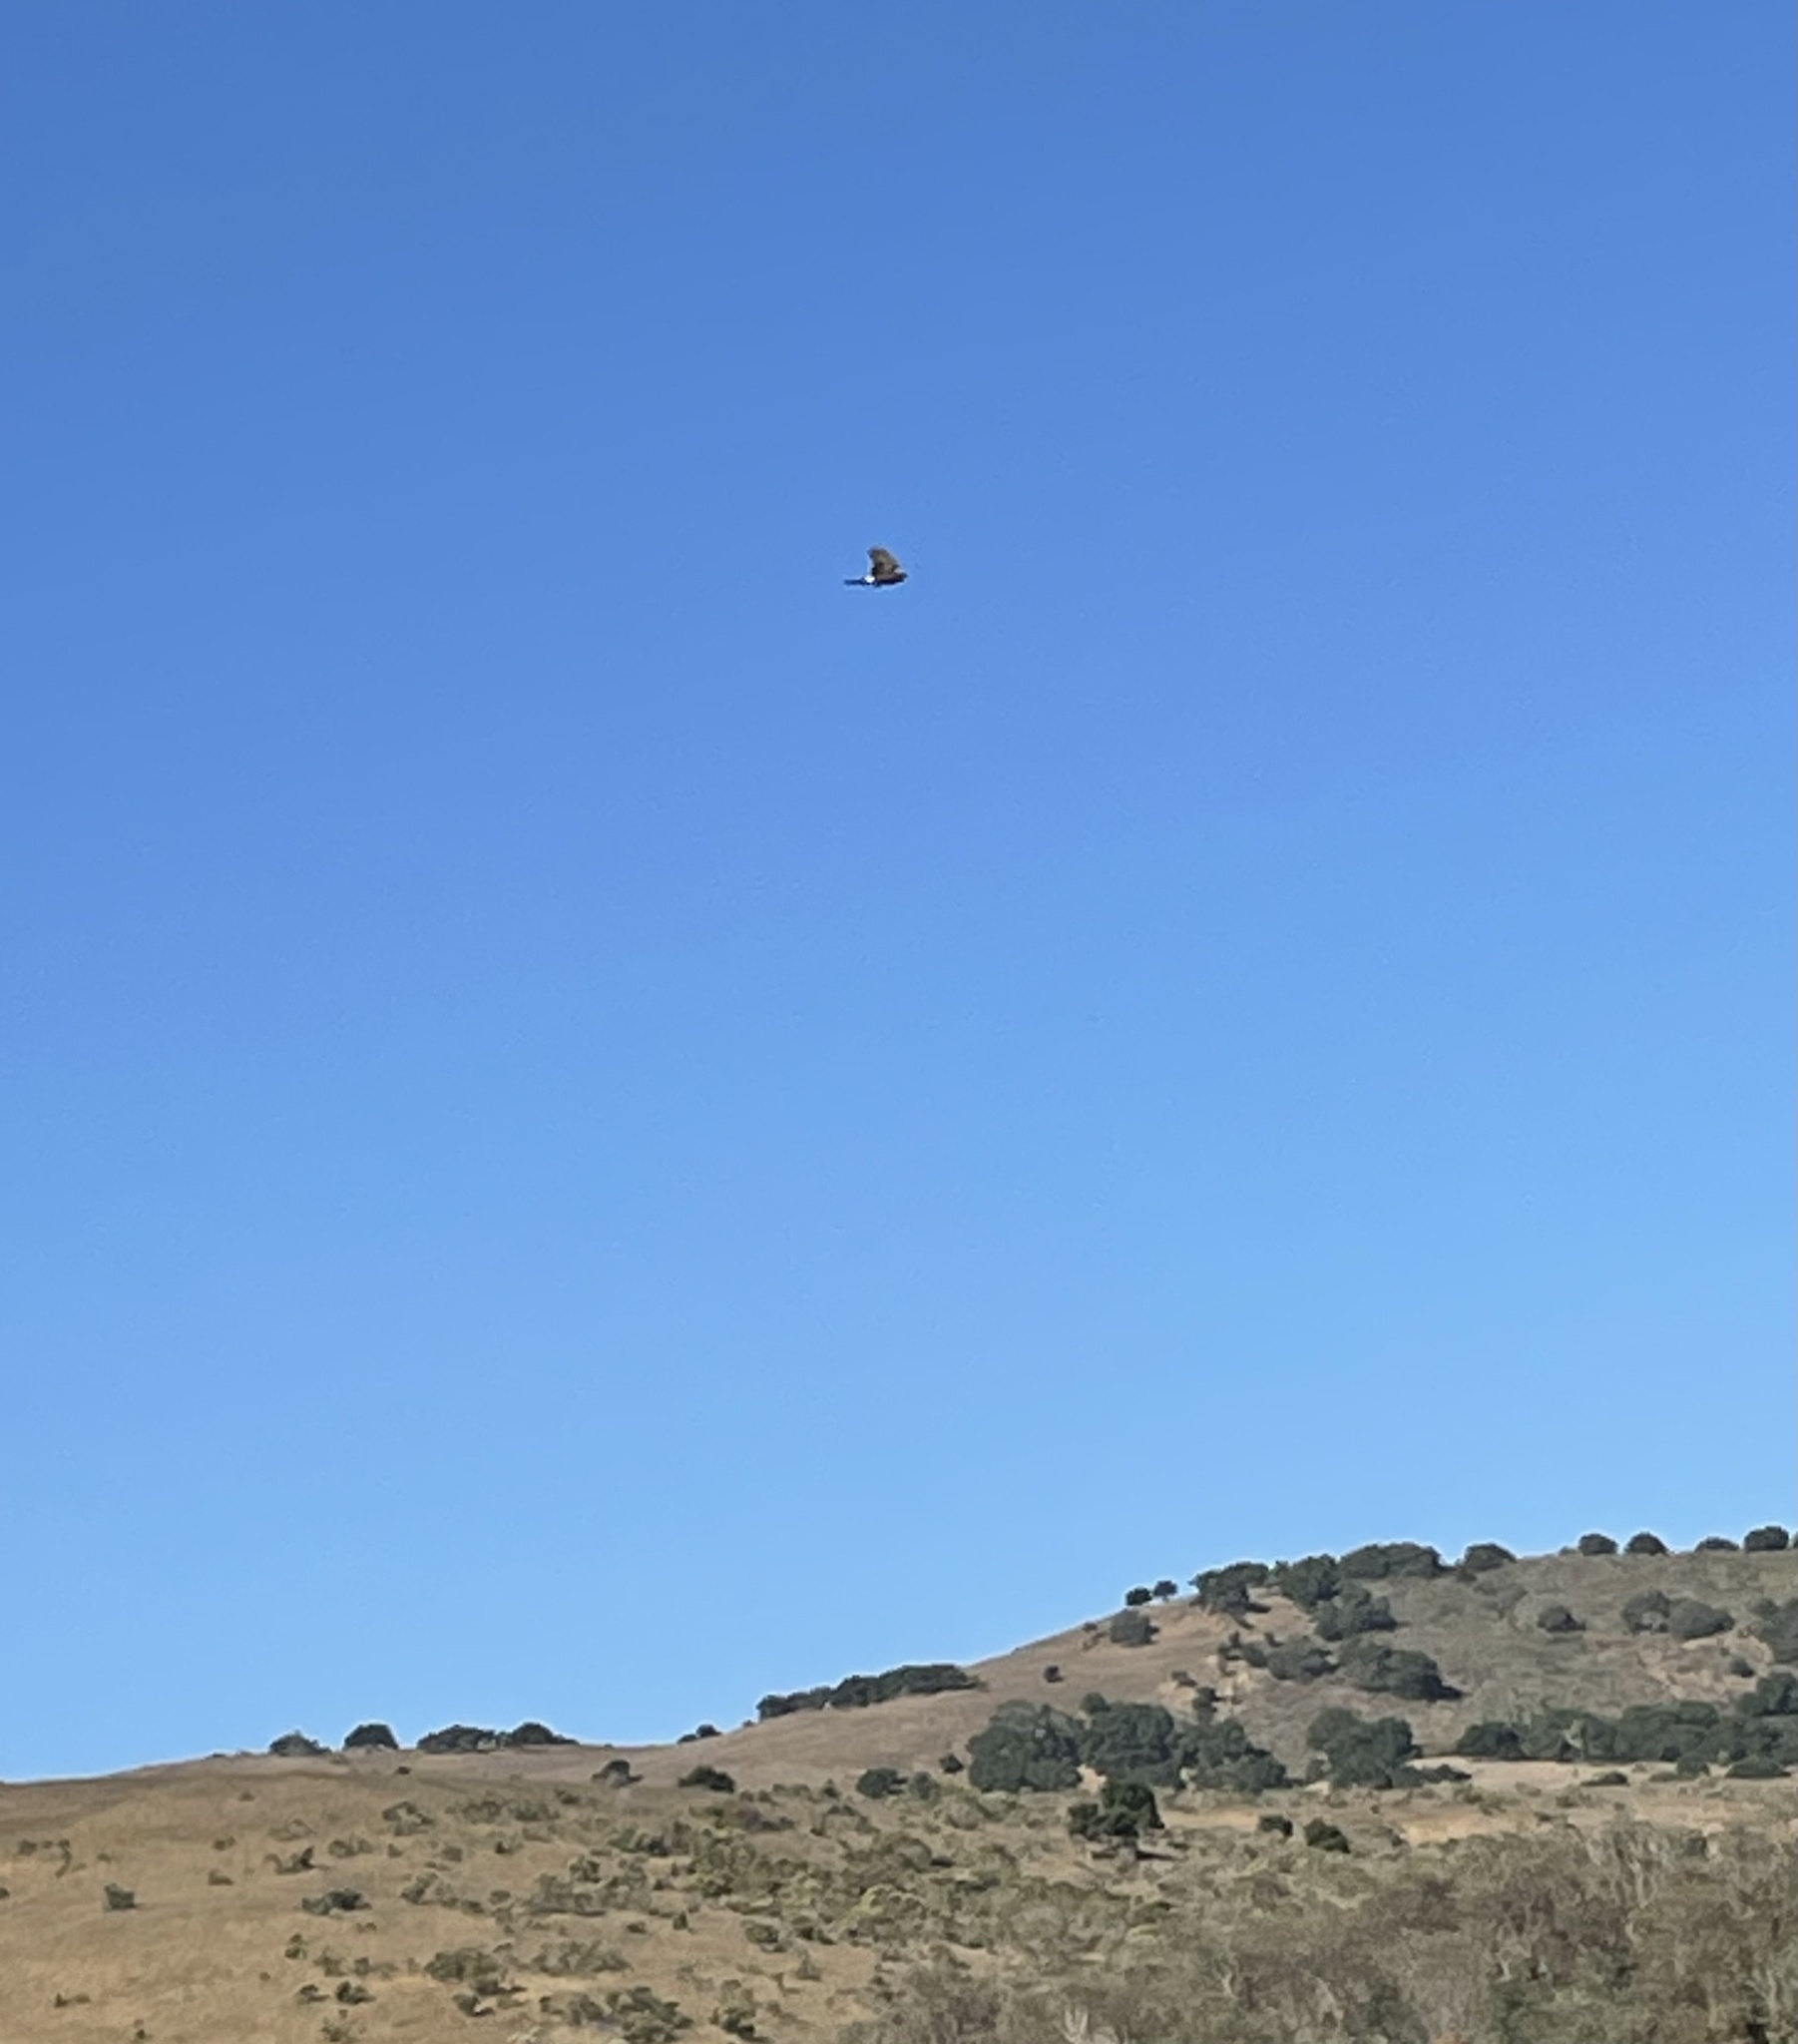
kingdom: Animalia
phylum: Chordata
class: Aves
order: Accipitriformes
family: Accipitridae
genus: Circus
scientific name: Circus cyaneus
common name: Hen harrier
